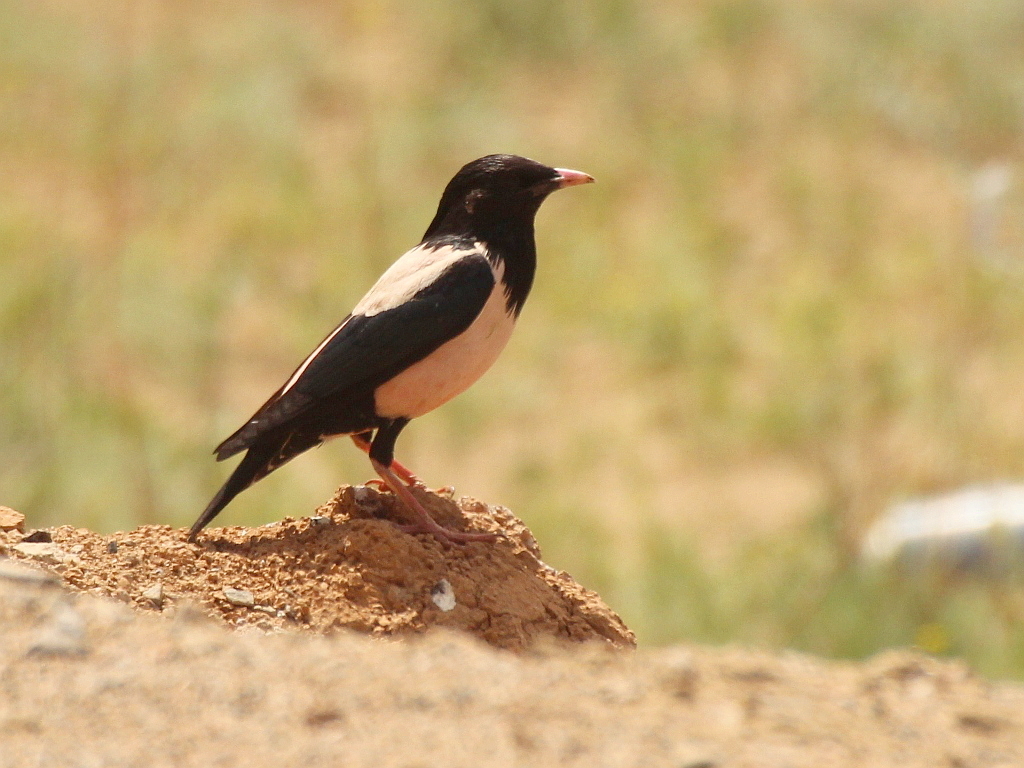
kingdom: Animalia
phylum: Chordata
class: Aves
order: Passeriformes
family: Sturnidae
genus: Pastor
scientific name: Pastor roseus
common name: Rosy starling
